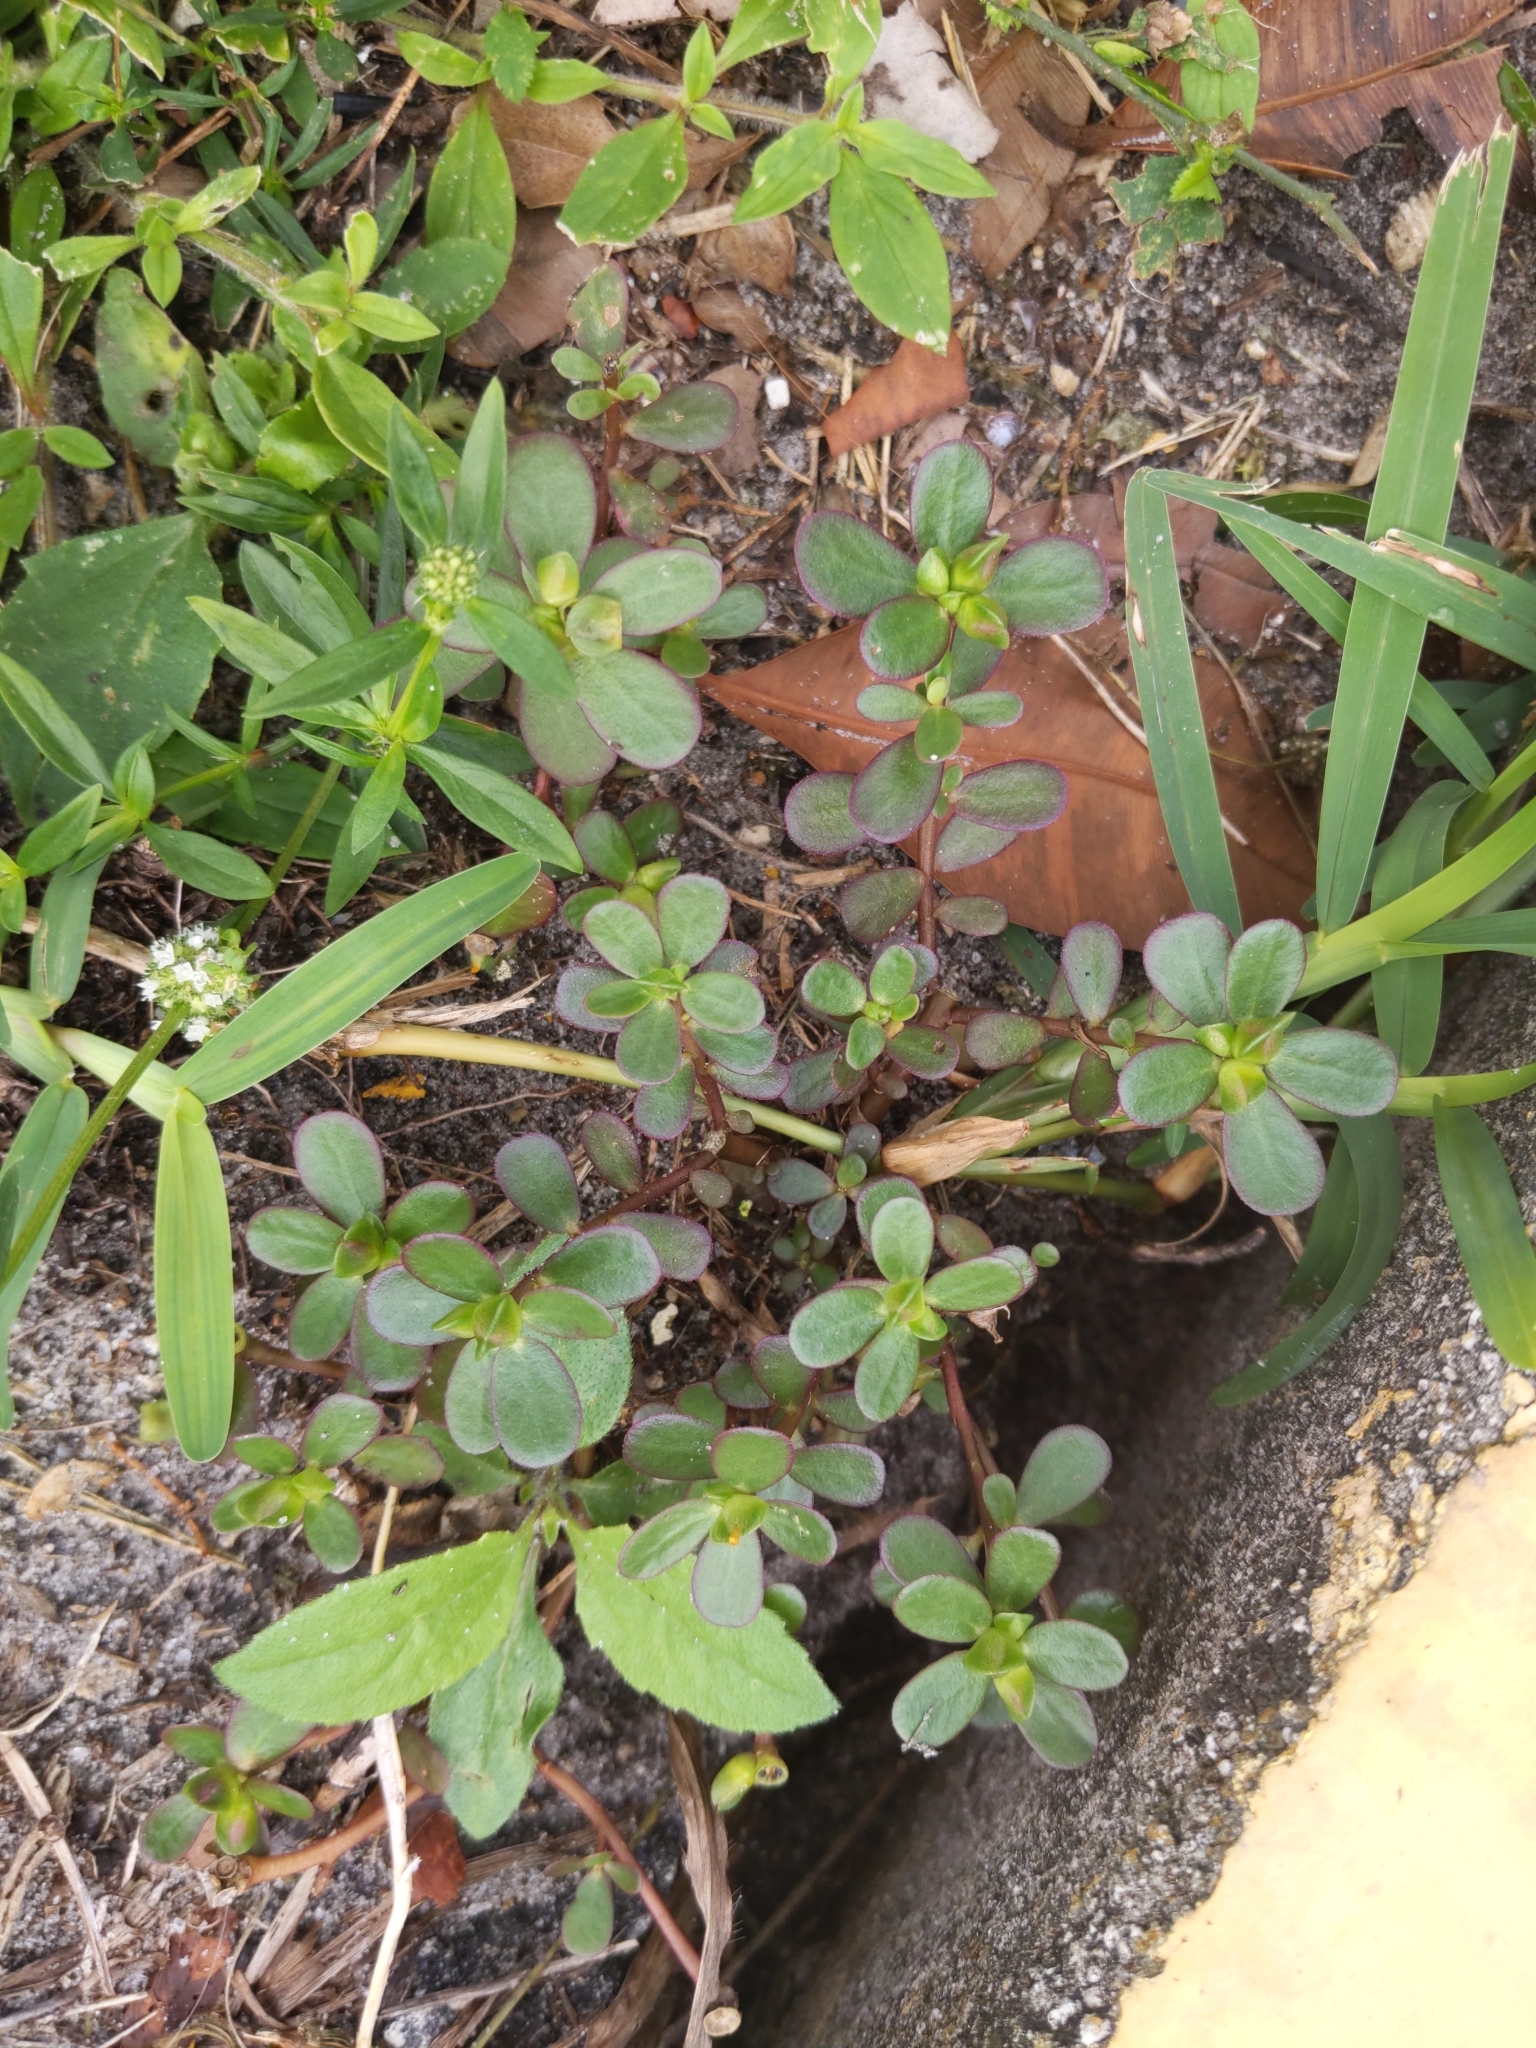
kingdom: Plantae
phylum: Tracheophyta
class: Magnoliopsida
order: Caryophyllales
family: Portulacaceae
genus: Portulaca
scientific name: Portulaca oleracea
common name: Common purslane
